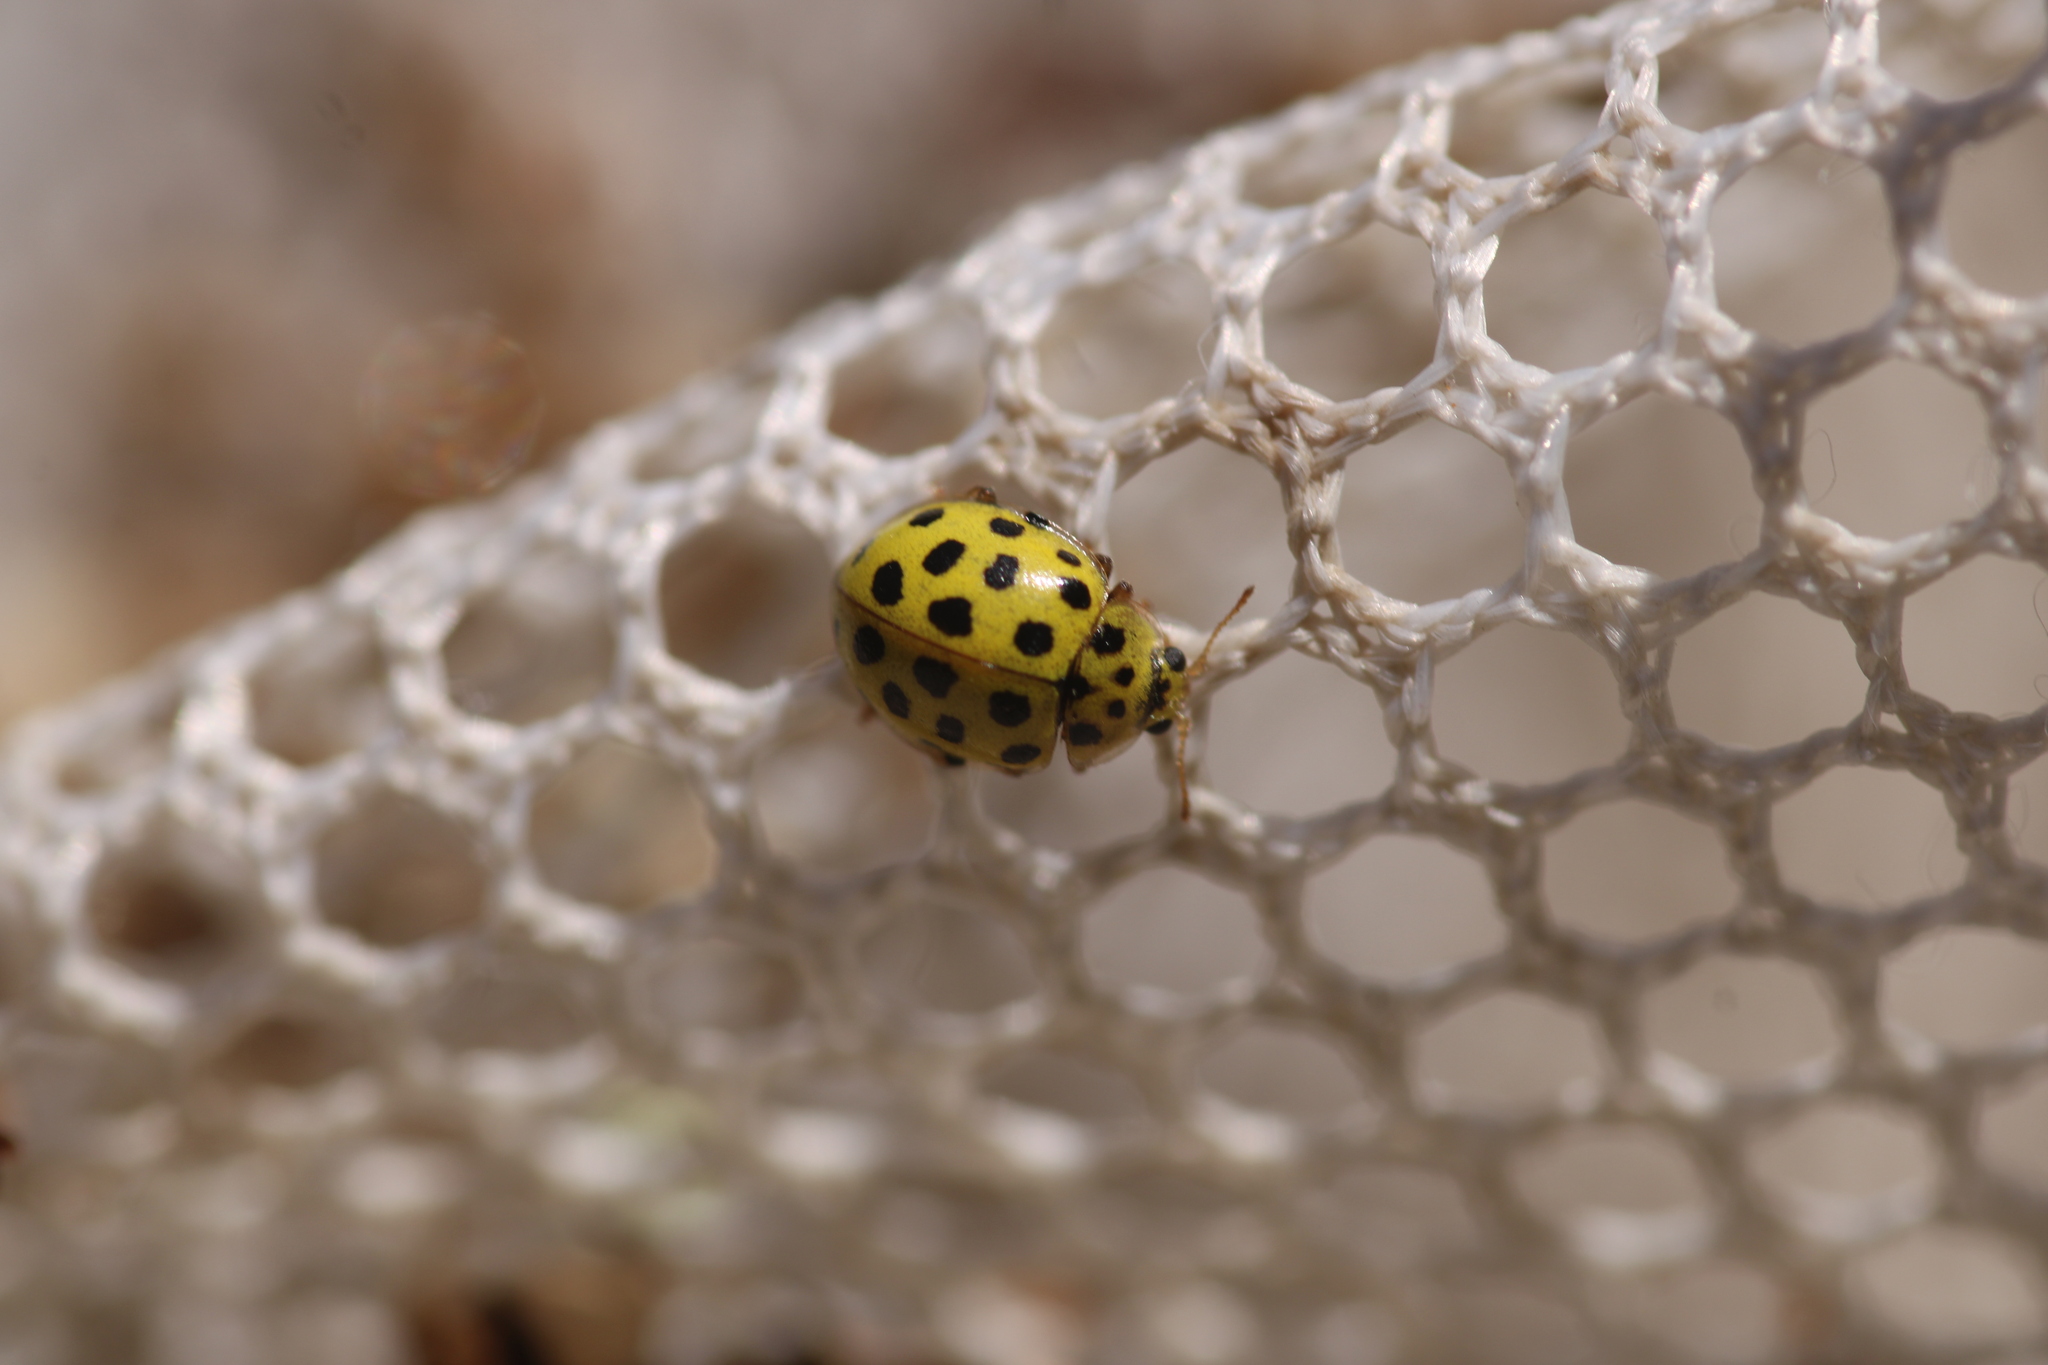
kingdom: Animalia
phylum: Arthropoda
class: Insecta
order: Coleoptera
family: Coccinellidae
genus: Psyllobora
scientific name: Psyllobora vigintiduopunctata
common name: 22-spot ladybird
